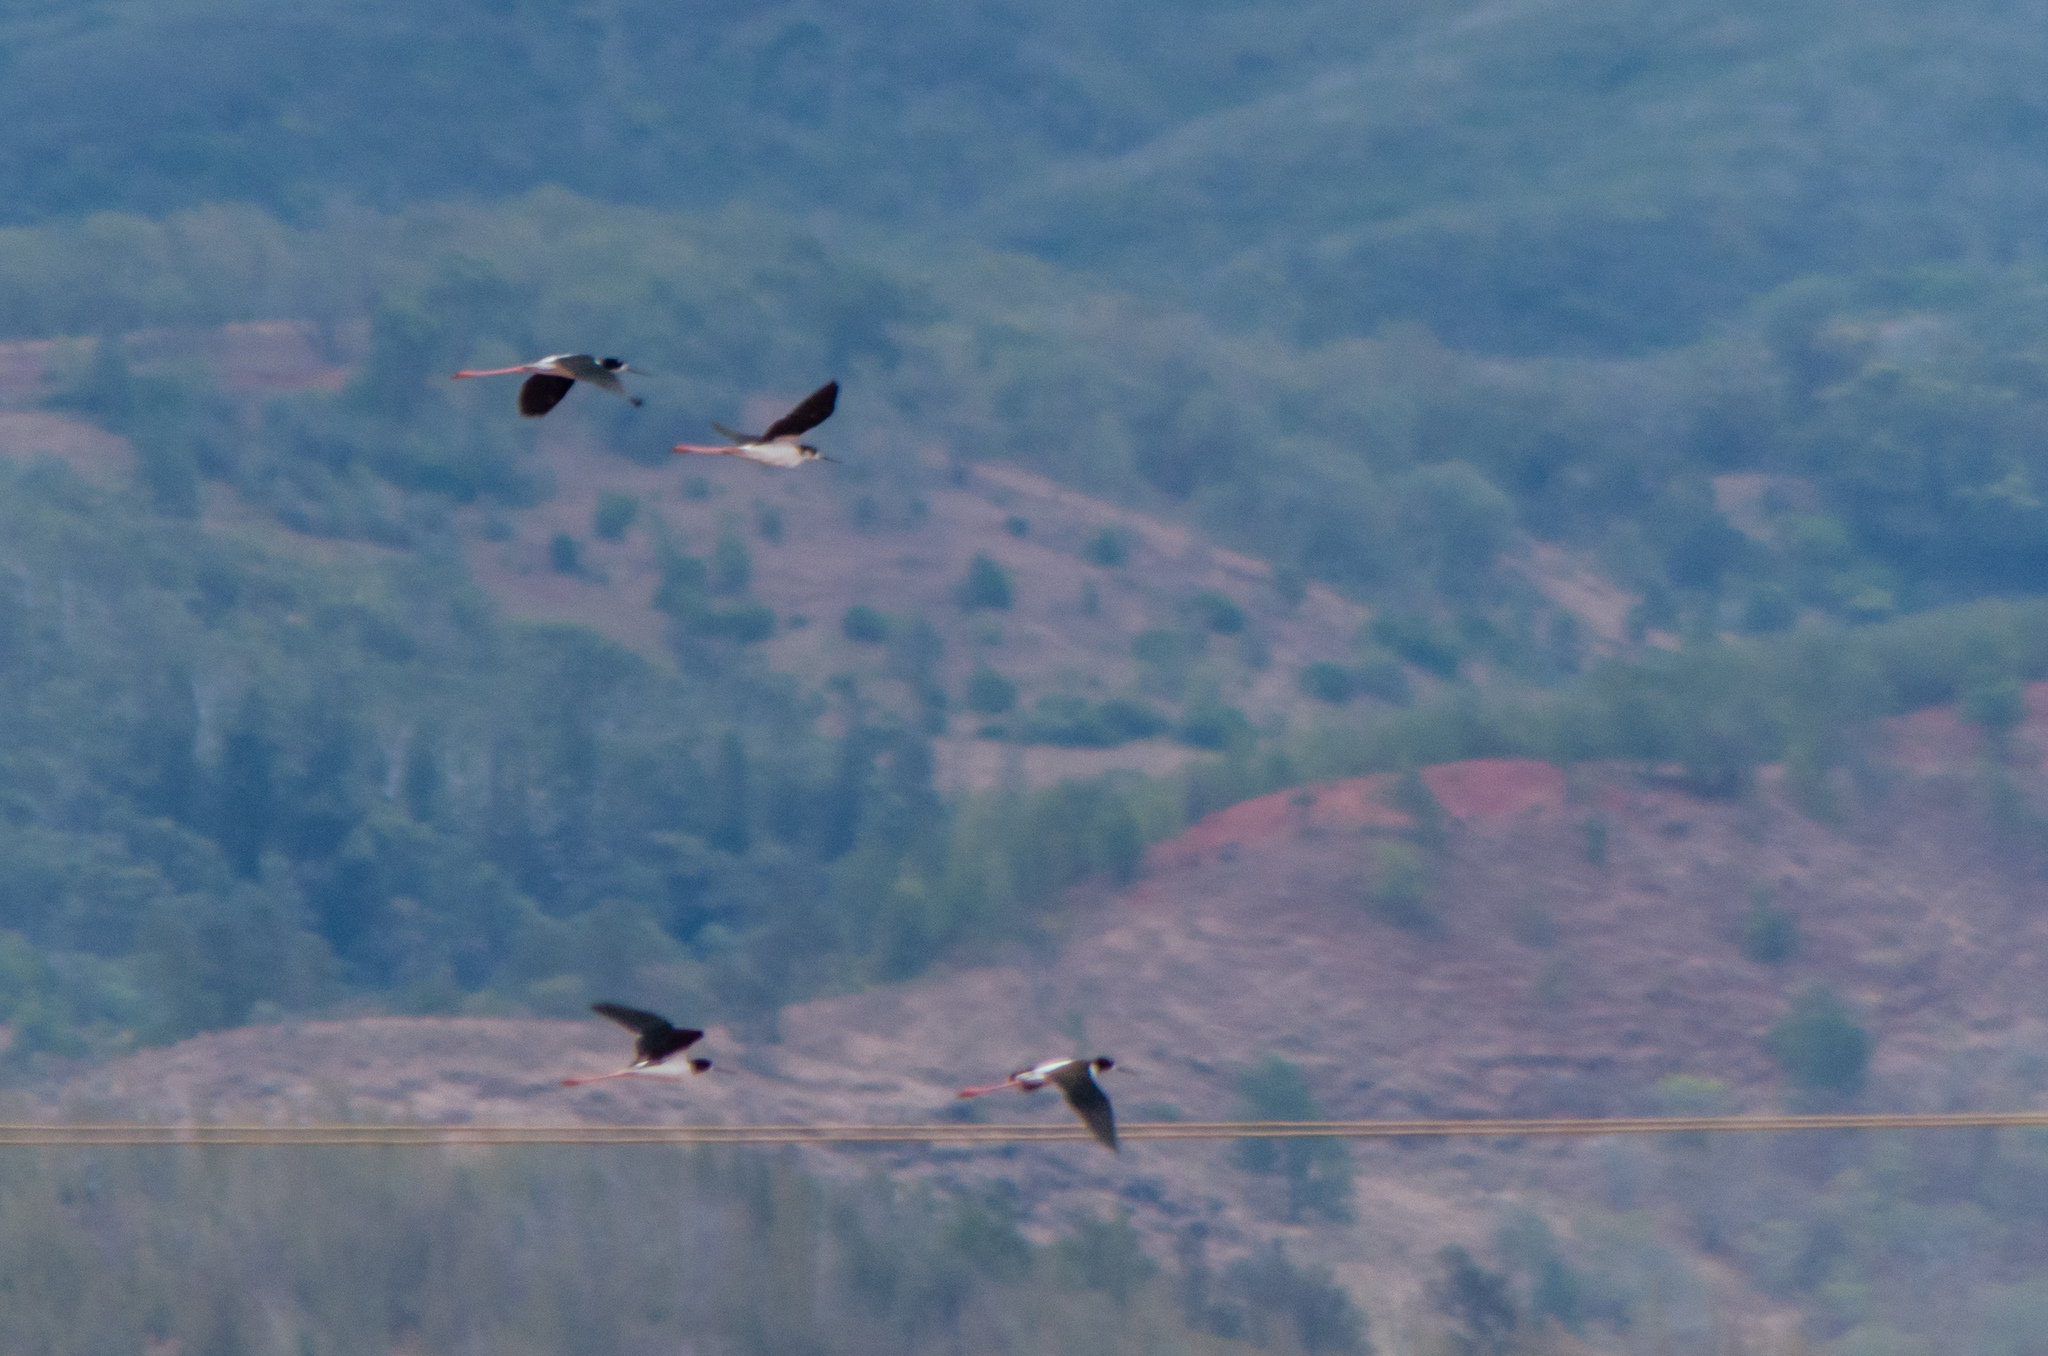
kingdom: Animalia
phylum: Chordata
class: Aves
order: Charadriiformes
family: Recurvirostridae
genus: Himantopus
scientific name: Himantopus mexicanus
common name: Black-necked stilt
